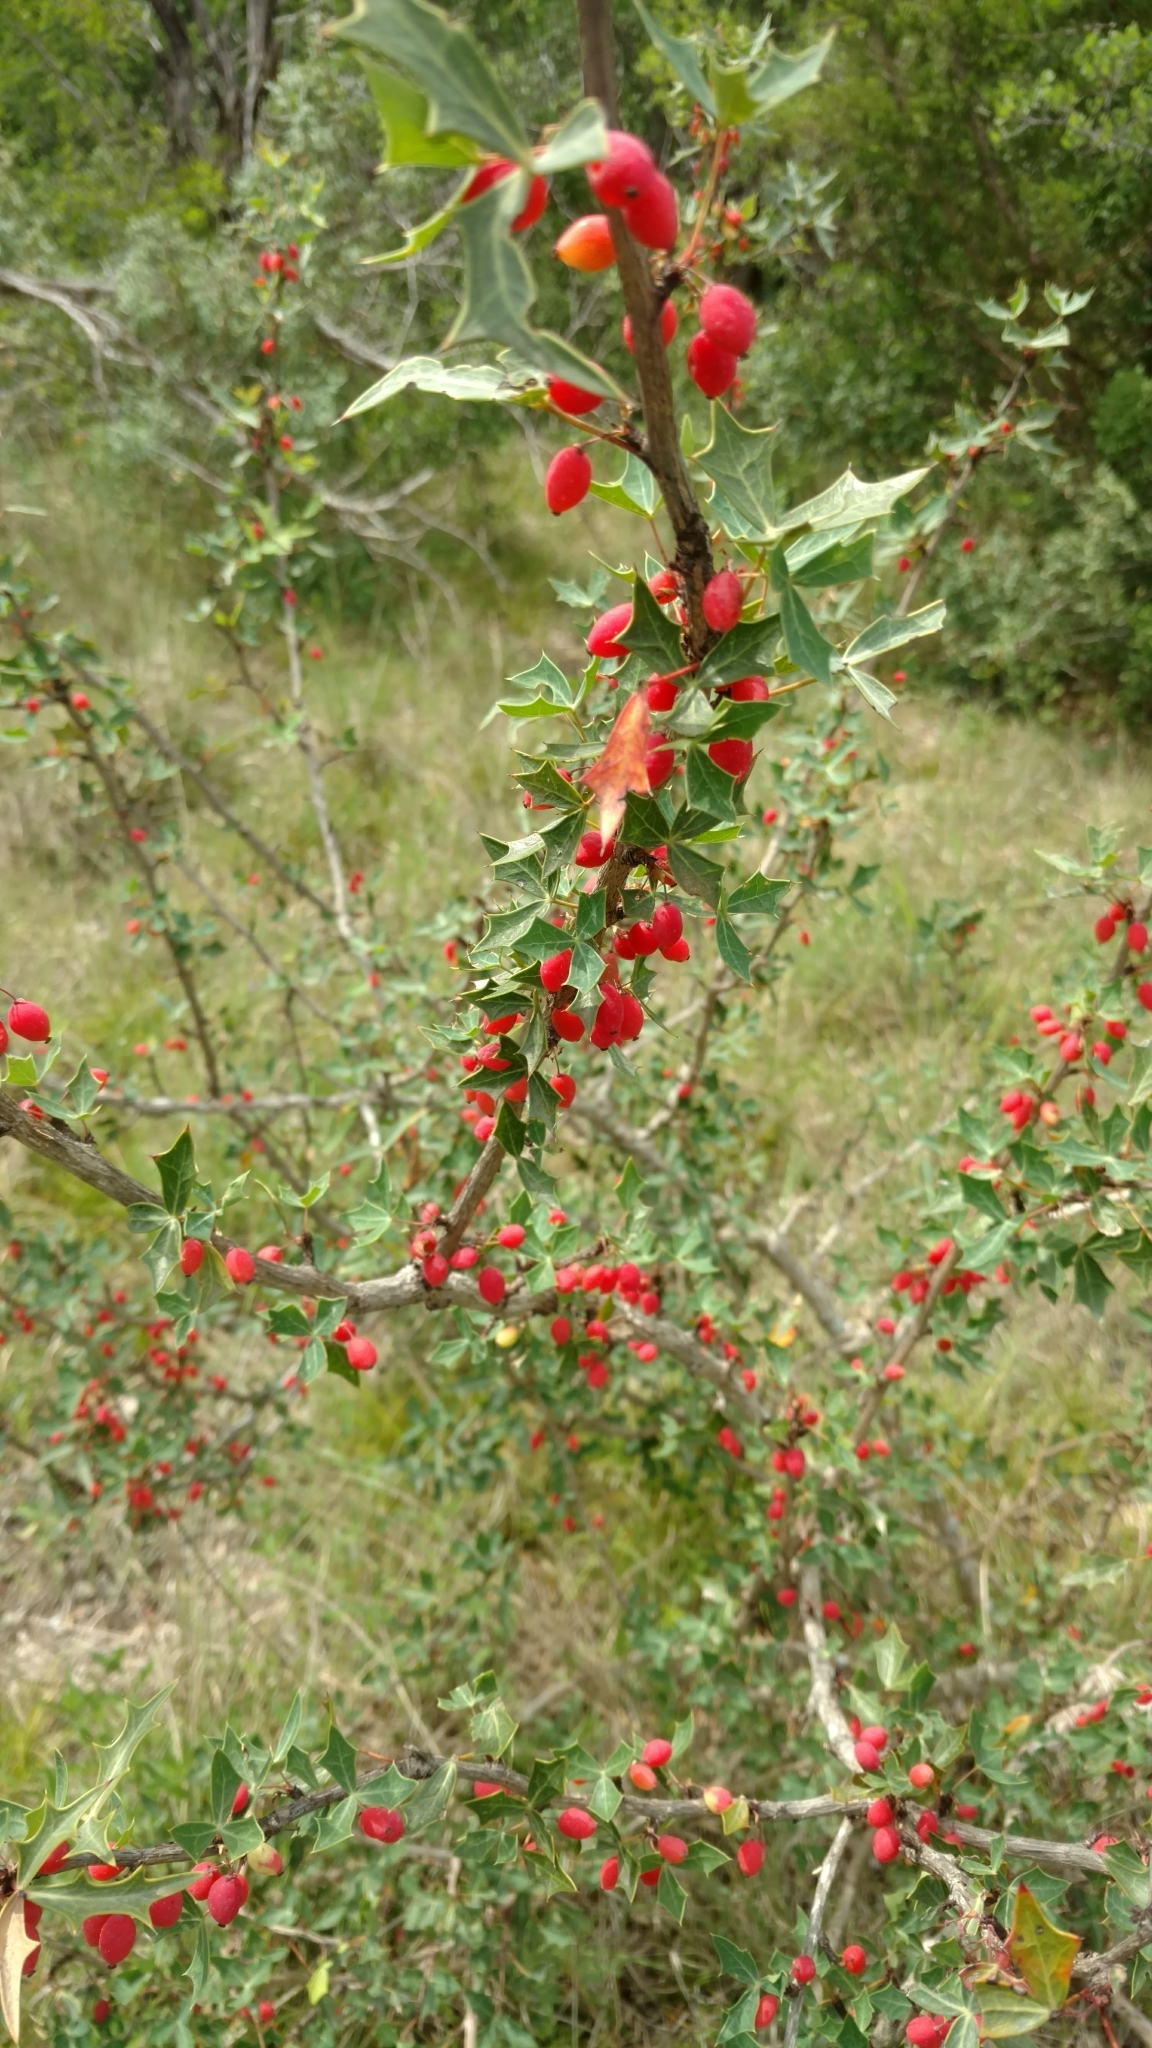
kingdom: Plantae
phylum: Tracheophyta
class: Magnoliopsida
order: Ranunculales
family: Berberidaceae
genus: Alloberberis
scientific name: Alloberberis trifoliolata
